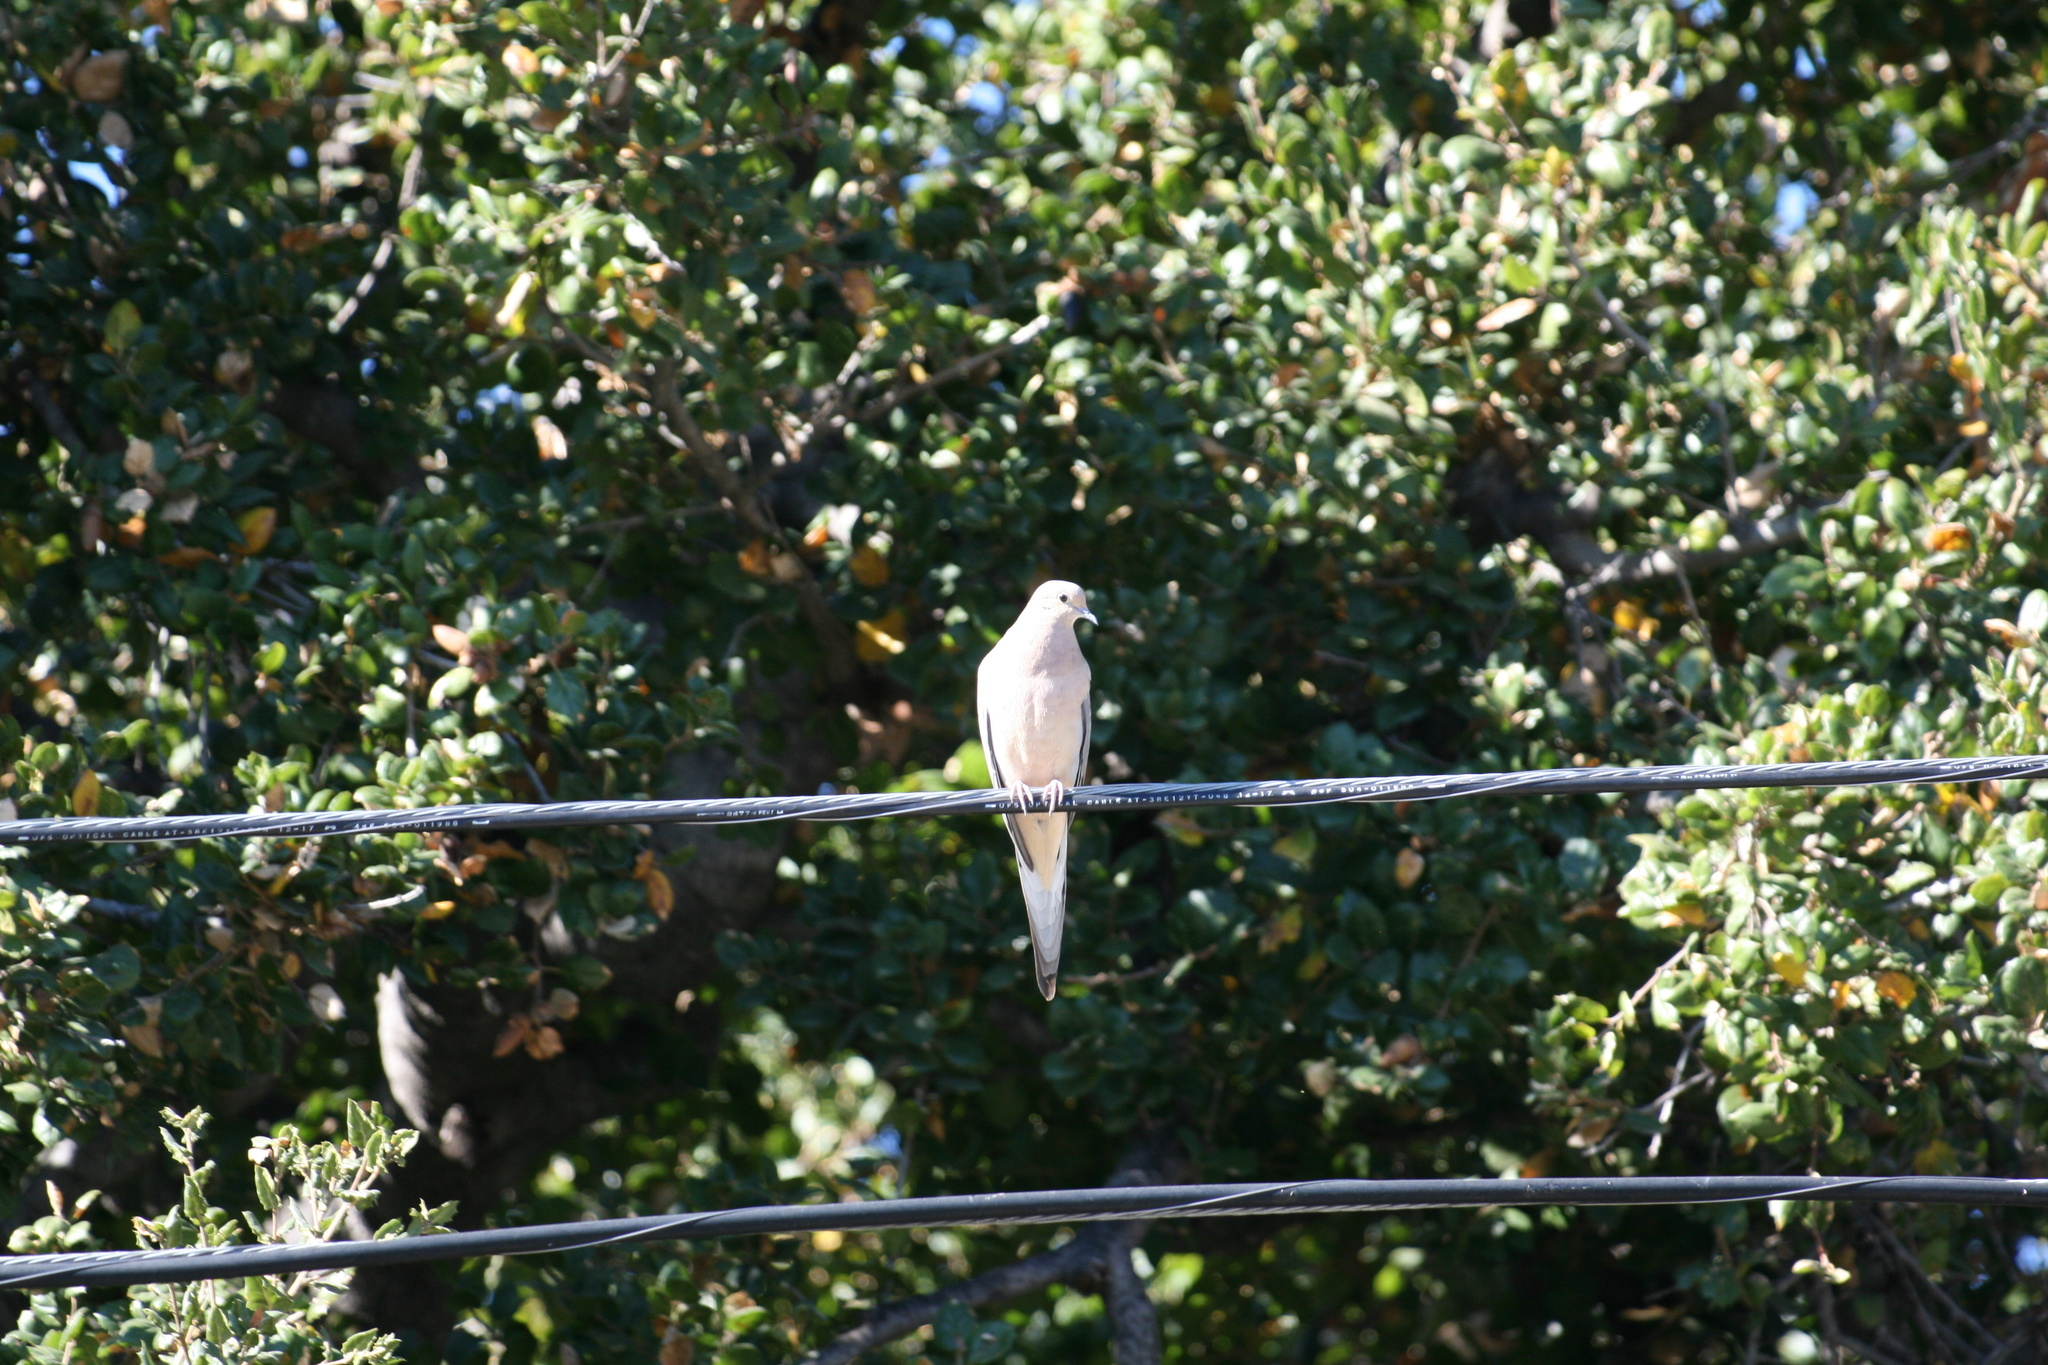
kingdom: Animalia
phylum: Chordata
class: Aves
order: Columbiformes
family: Columbidae
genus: Zenaida
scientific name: Zenaida macroura
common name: Mourning dove
